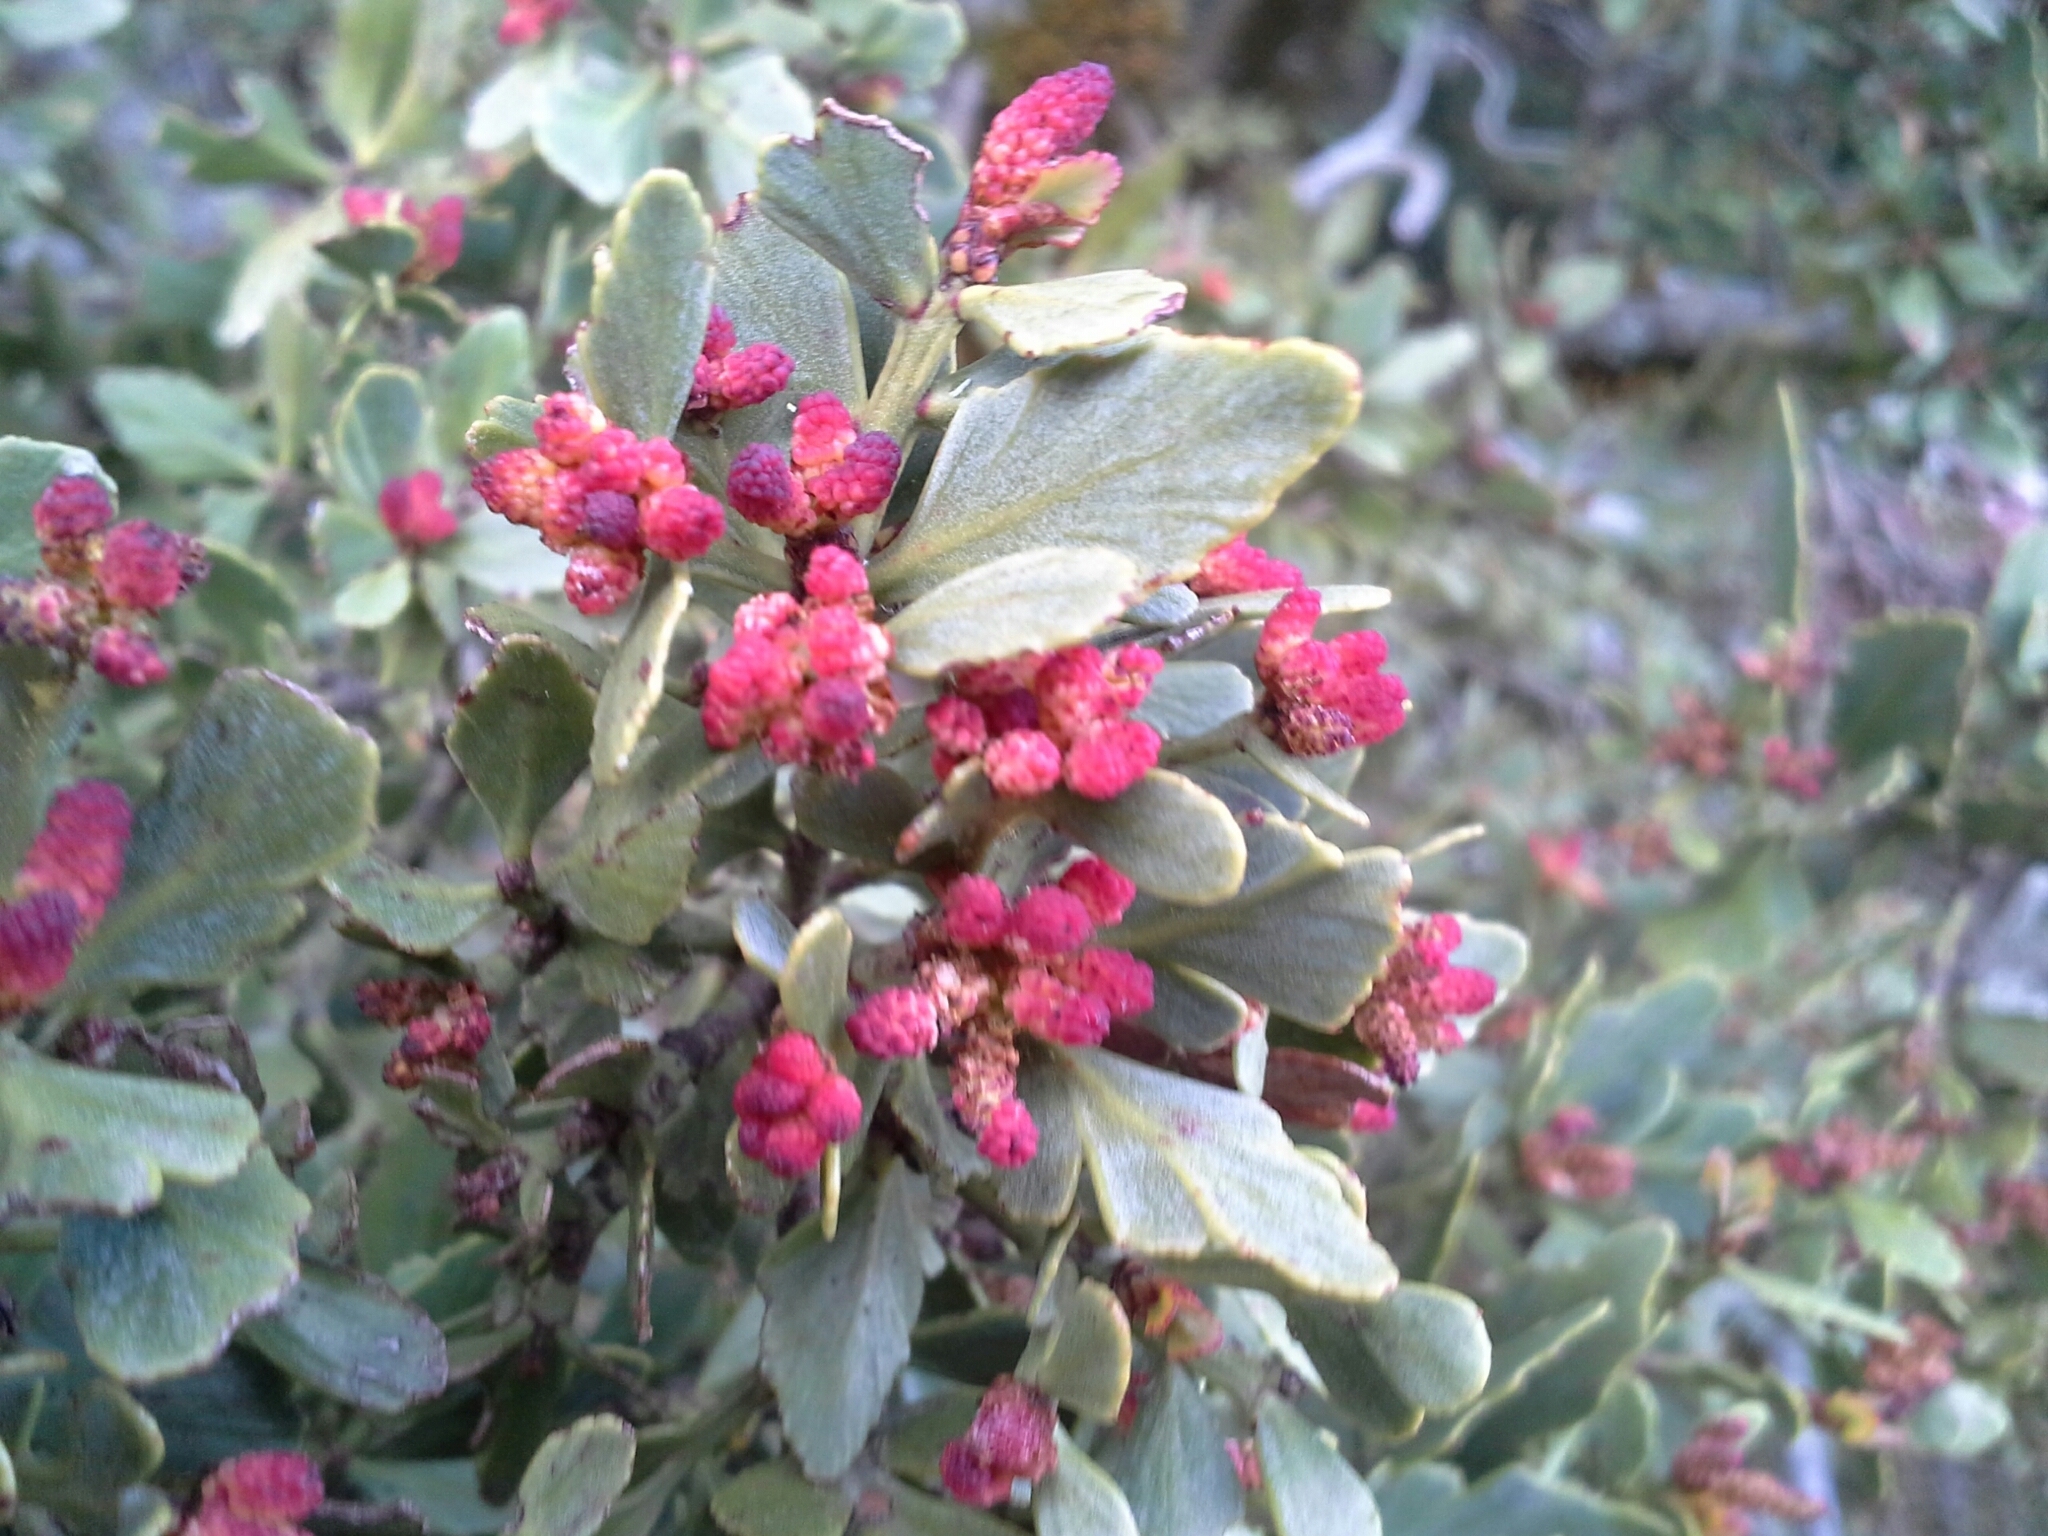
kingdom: Plantae
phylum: Tracheophyta
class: Pinopsida
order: Pinales
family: Phyllocladaceae
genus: Phyllocladus
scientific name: Phyllocladus trichomanoides
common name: Celery pine
